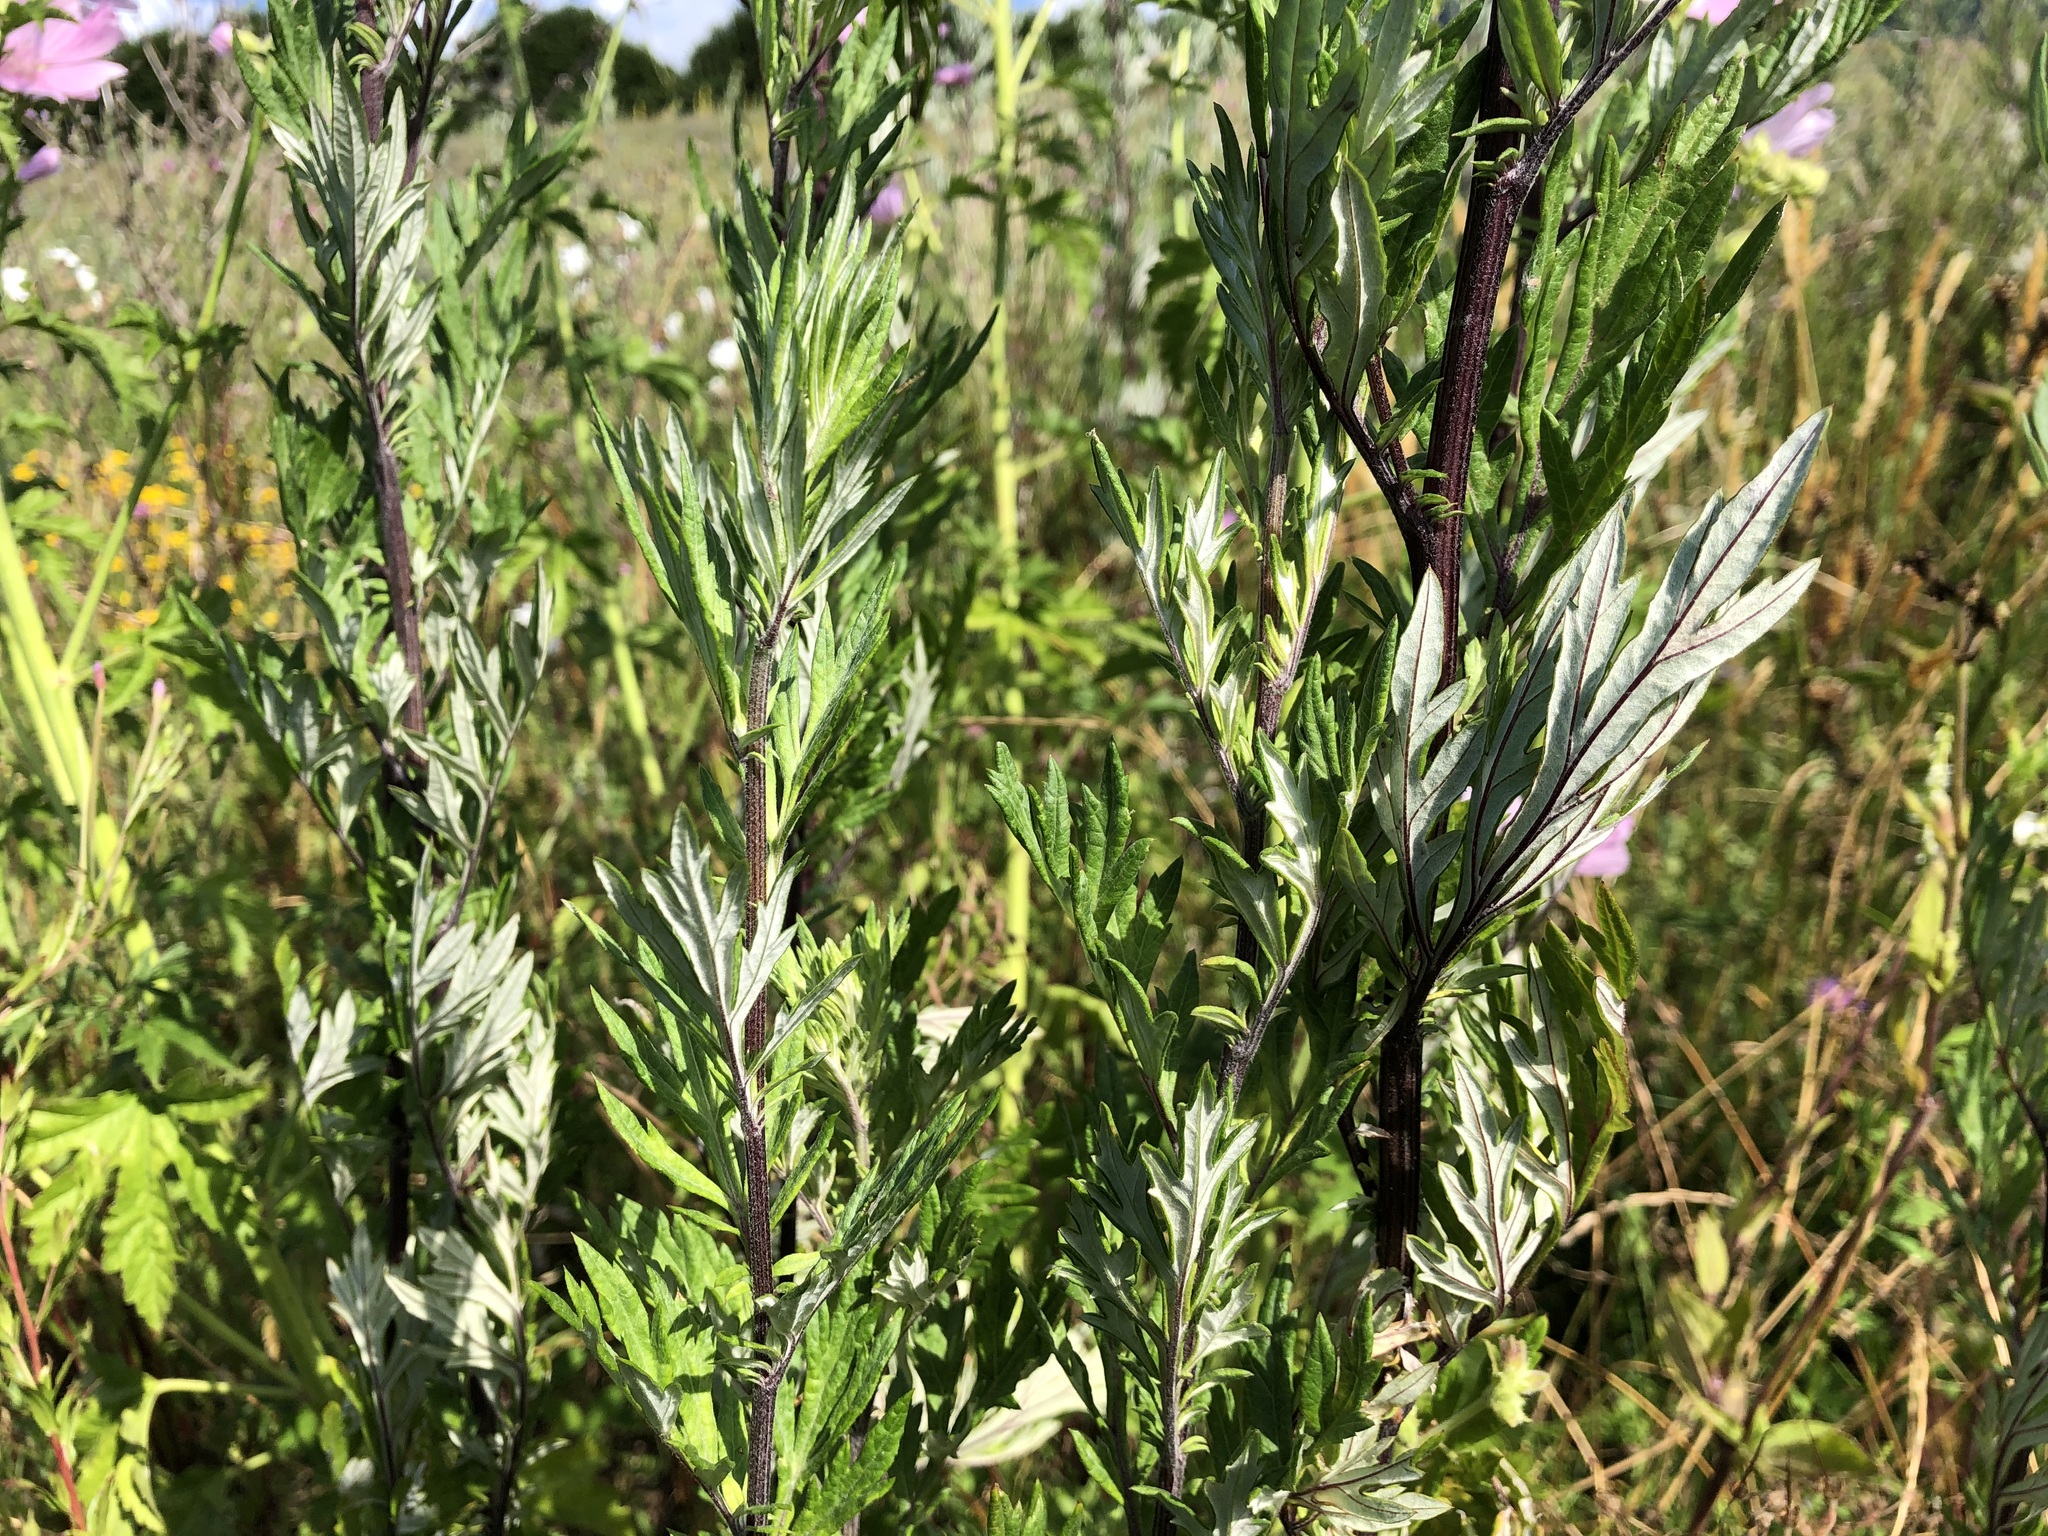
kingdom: Plantae
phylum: Tracheophyta
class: Magnoliopsida
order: Asterales
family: Asteraceae
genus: Artemisia
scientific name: Artemisia vulgaris
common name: Mugwort
